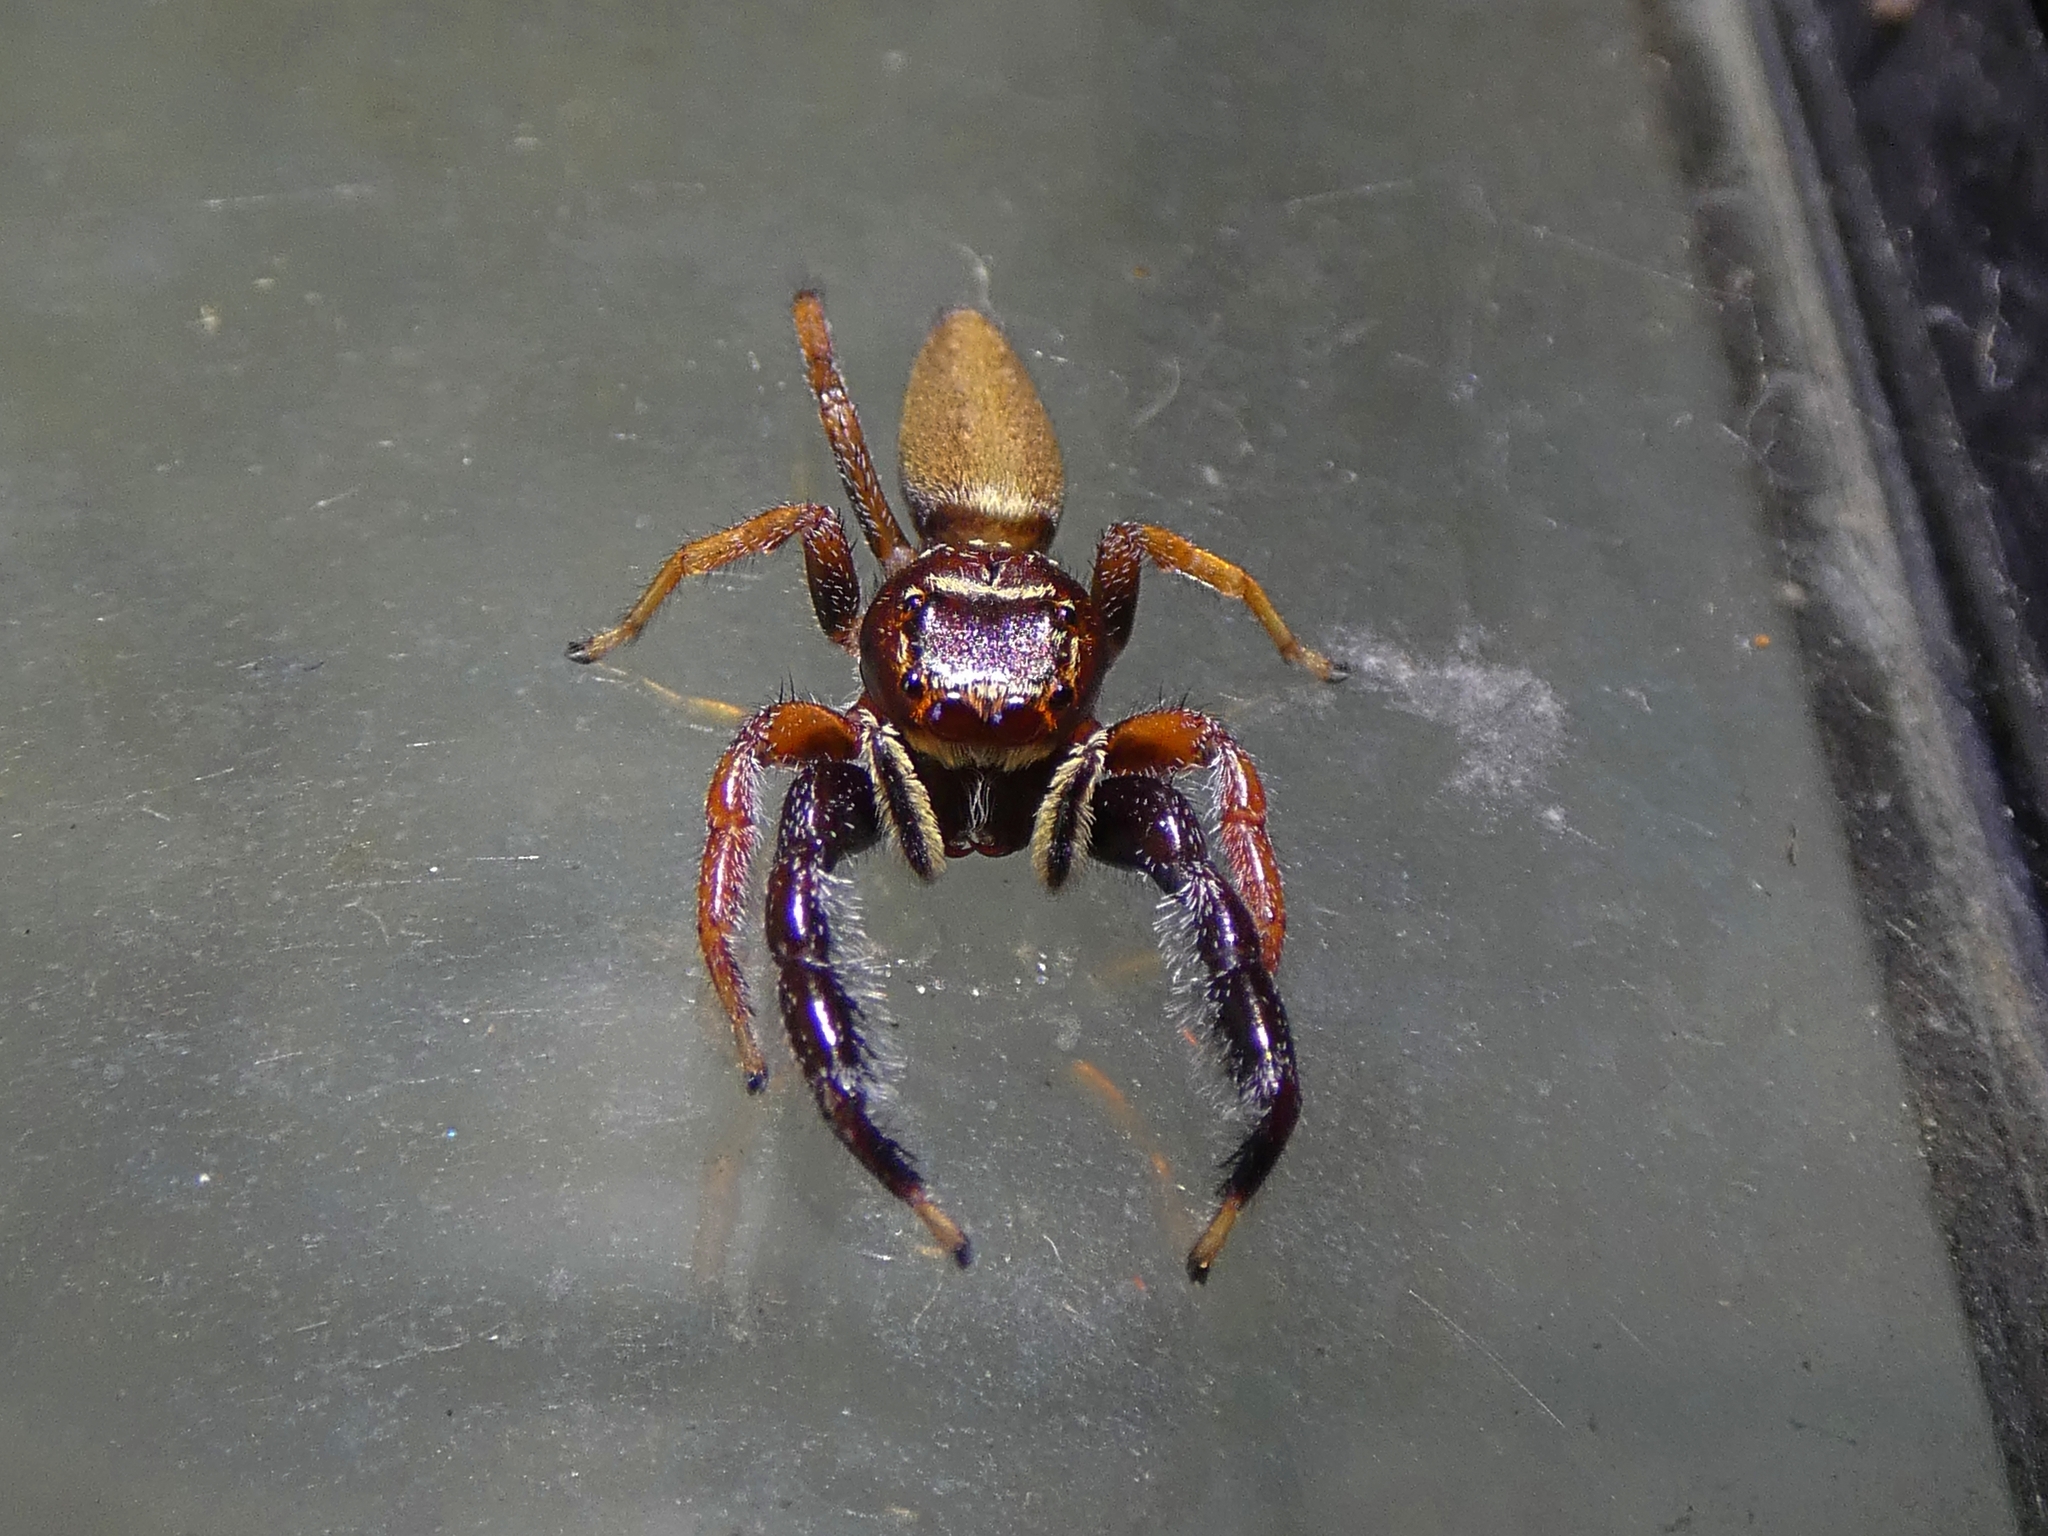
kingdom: Animalia
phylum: Arthropoda
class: Arachnida
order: Araneae
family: Salticidae
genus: Bavia
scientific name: Bavia aericeps
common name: Jumping spider
